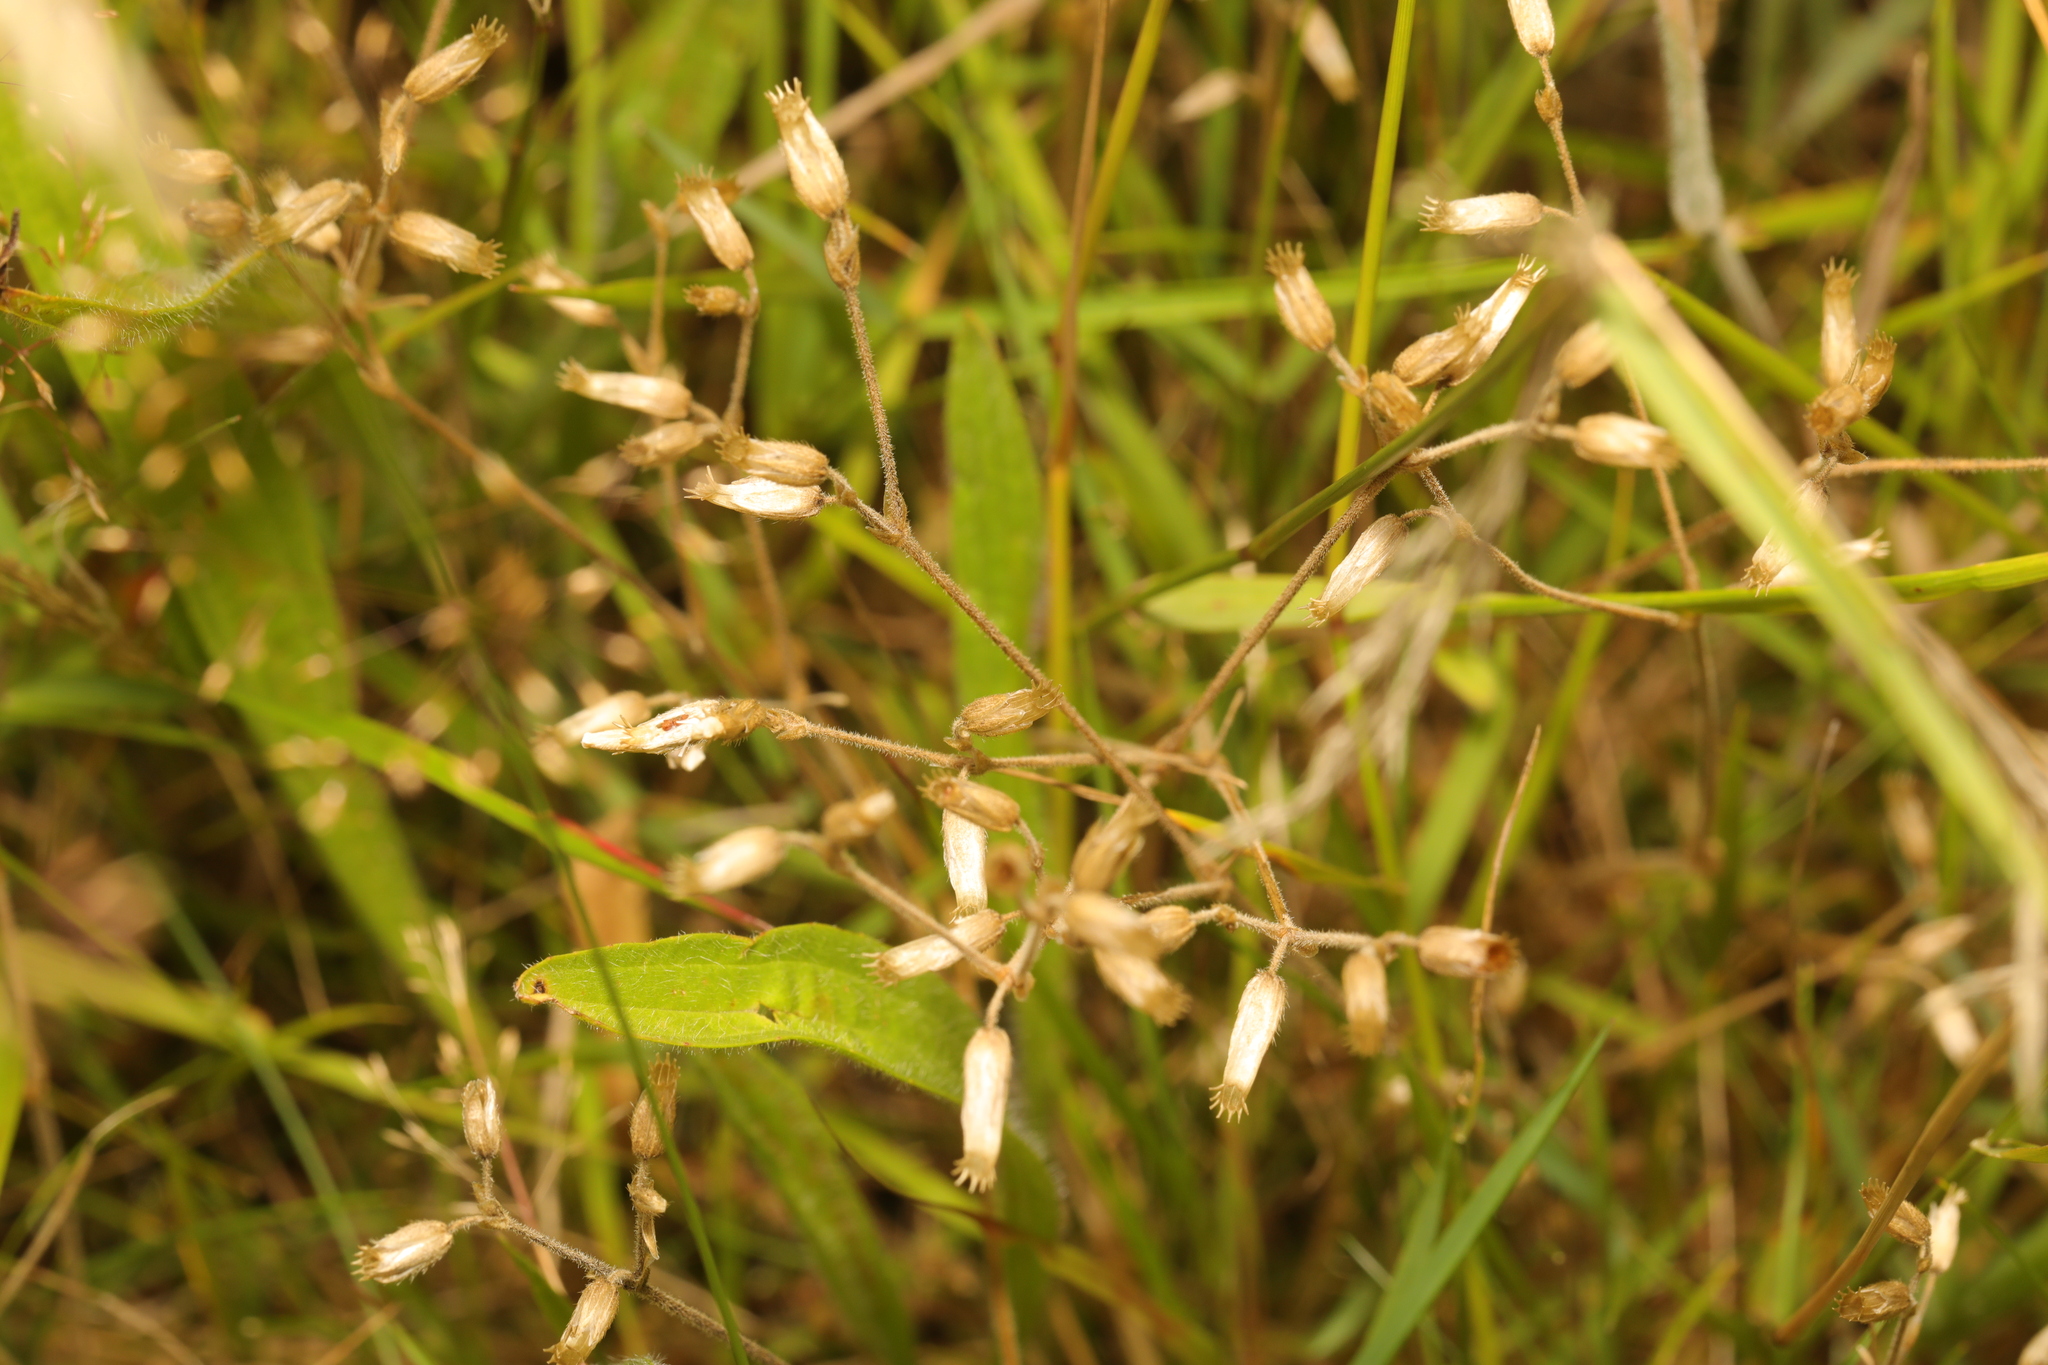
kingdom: Plantae
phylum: Tracheophyta
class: Magnoliopsida
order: Caryophyllales
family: Caryophyllaceae
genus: Cerastium
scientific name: Cerastium fontanum
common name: Common mouse-ear
